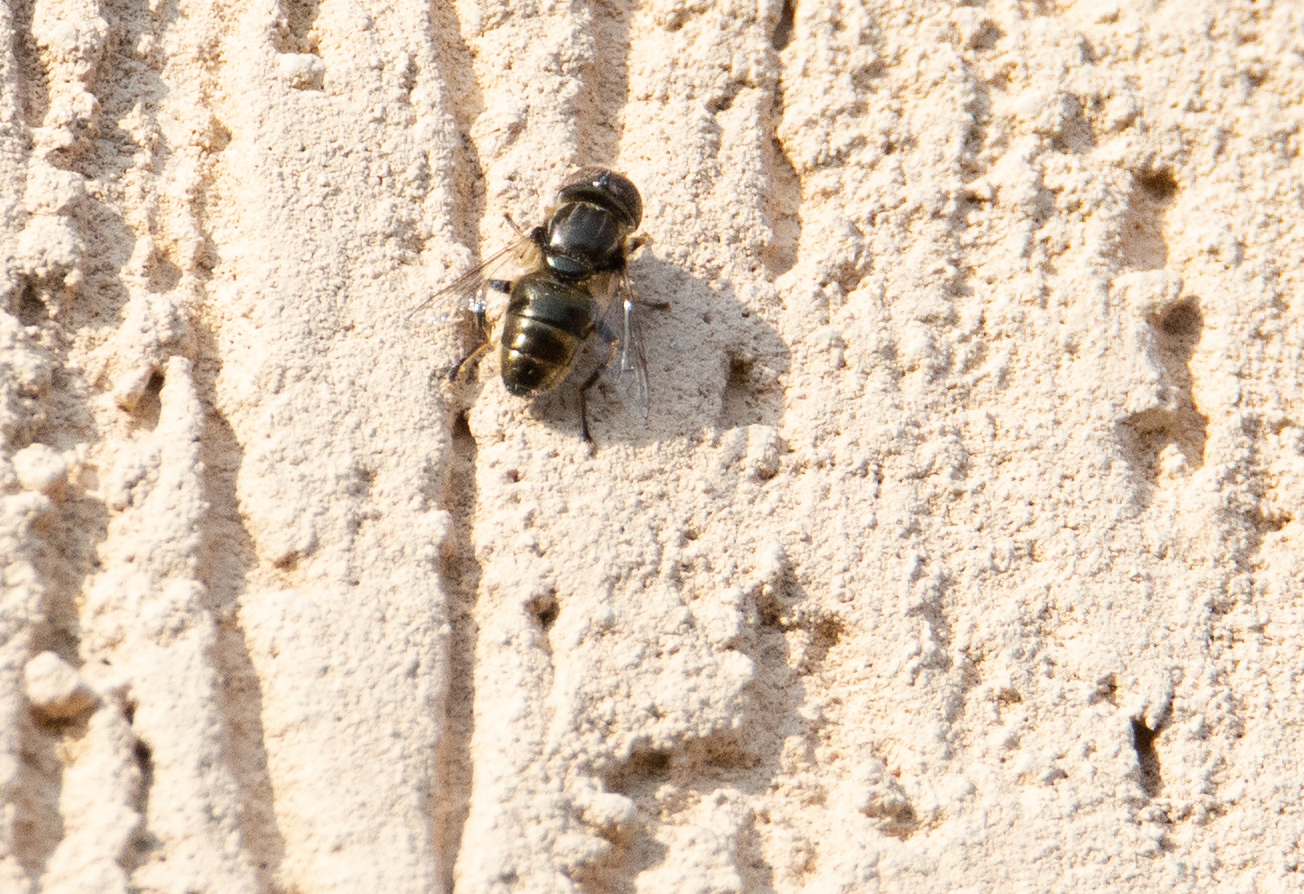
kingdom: Animalia
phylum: Arthropoda
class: Insecta
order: Diptera
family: Syrphidae
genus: Eristalinus
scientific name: Eristalinus aeneus
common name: Syrphid fly
